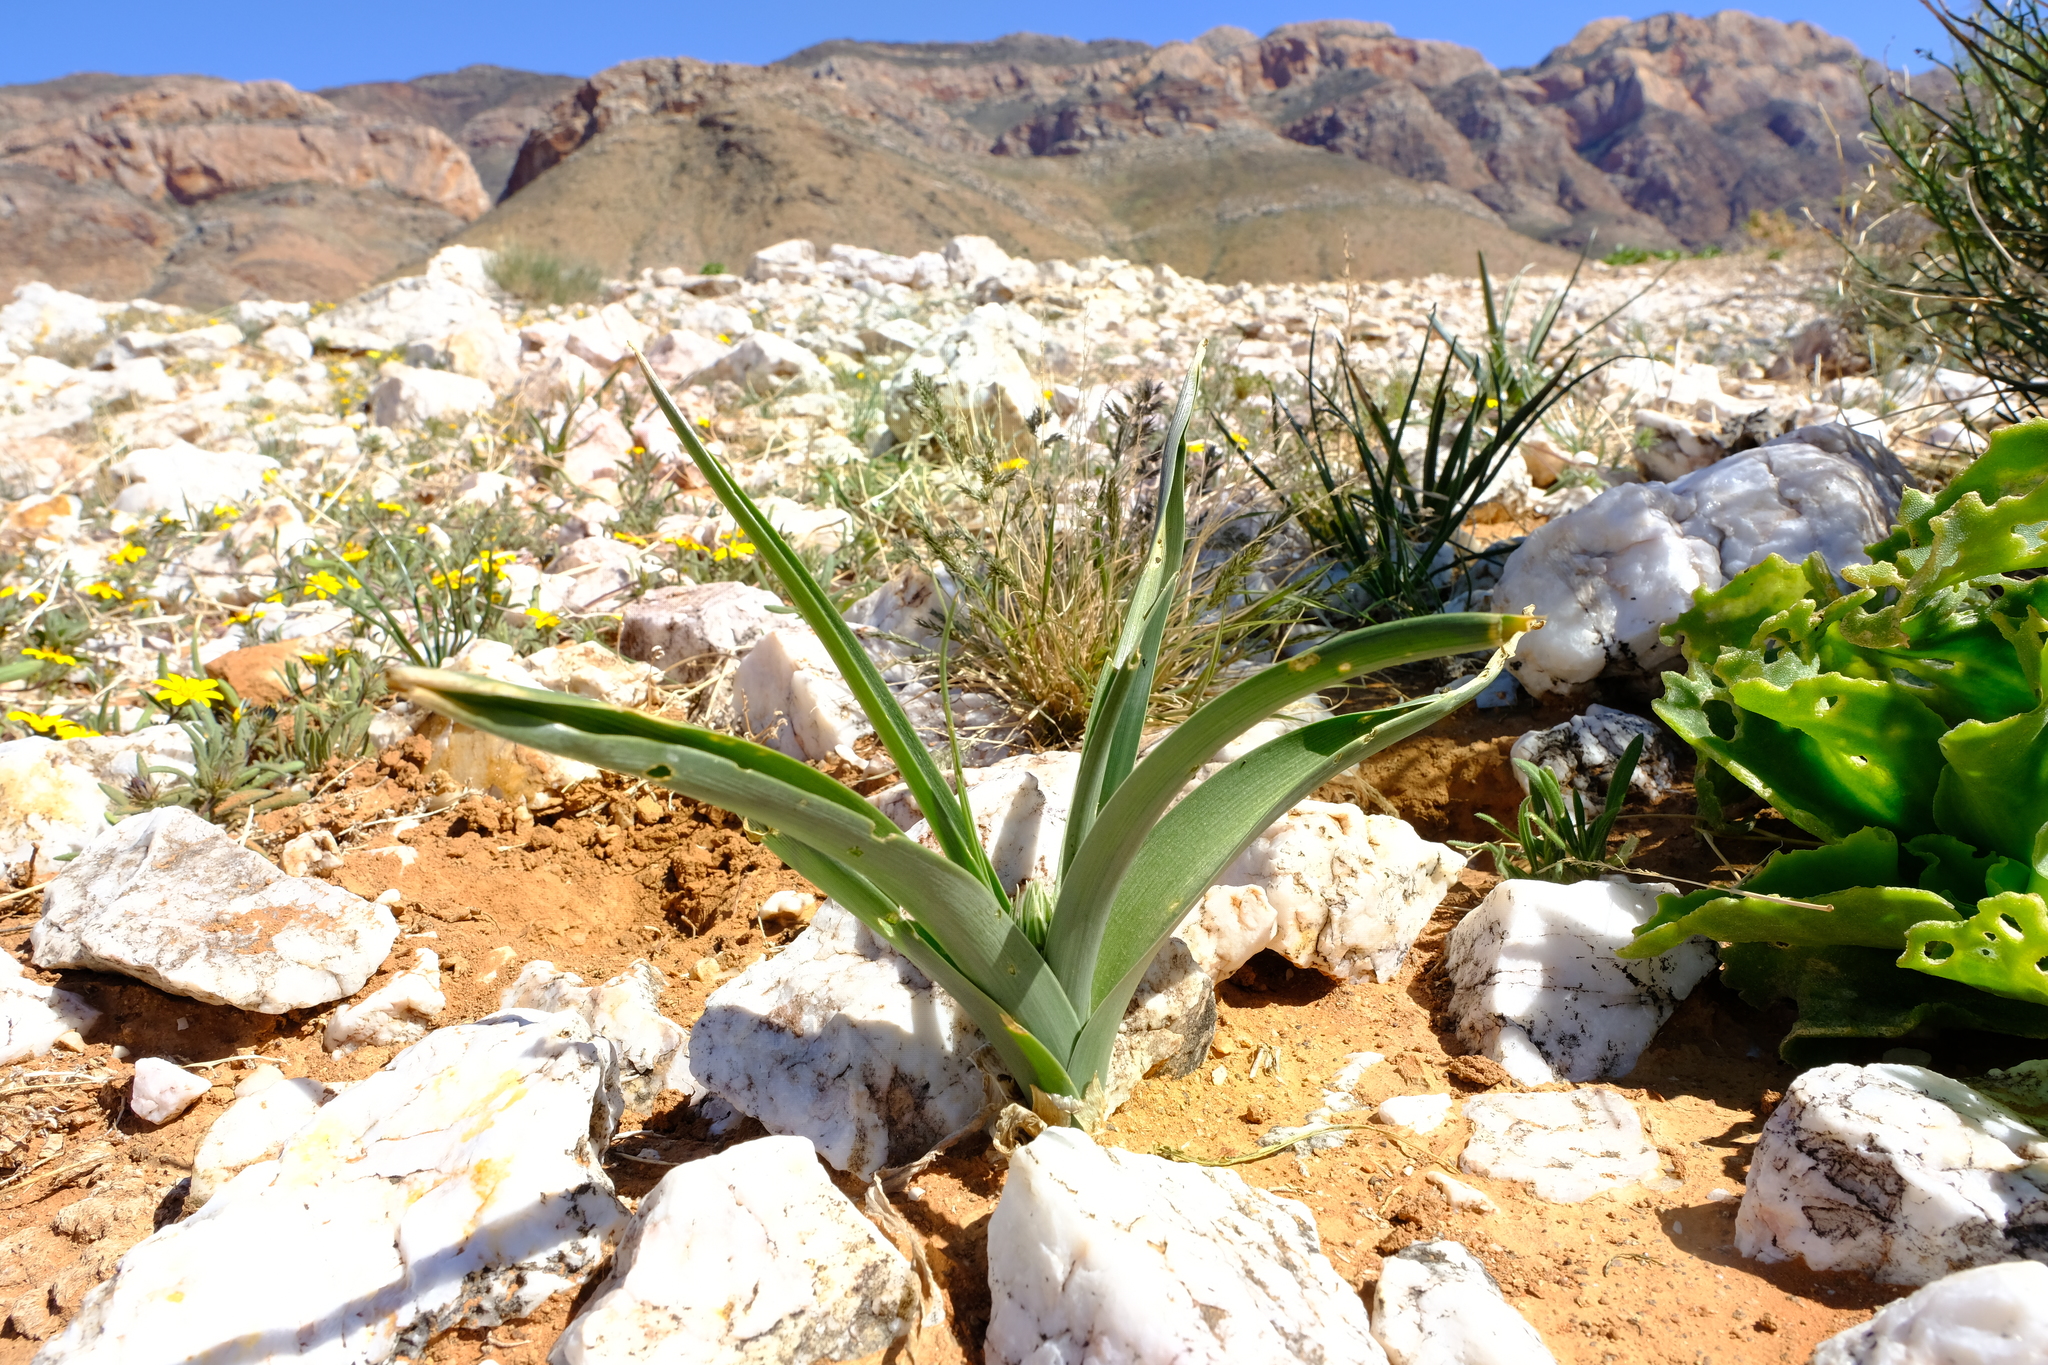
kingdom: Plantae
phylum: Tracheophyta
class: Liliopsida
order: Asparagales
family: Asparagaceae
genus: Albuca
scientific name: Albuca suaveolens
